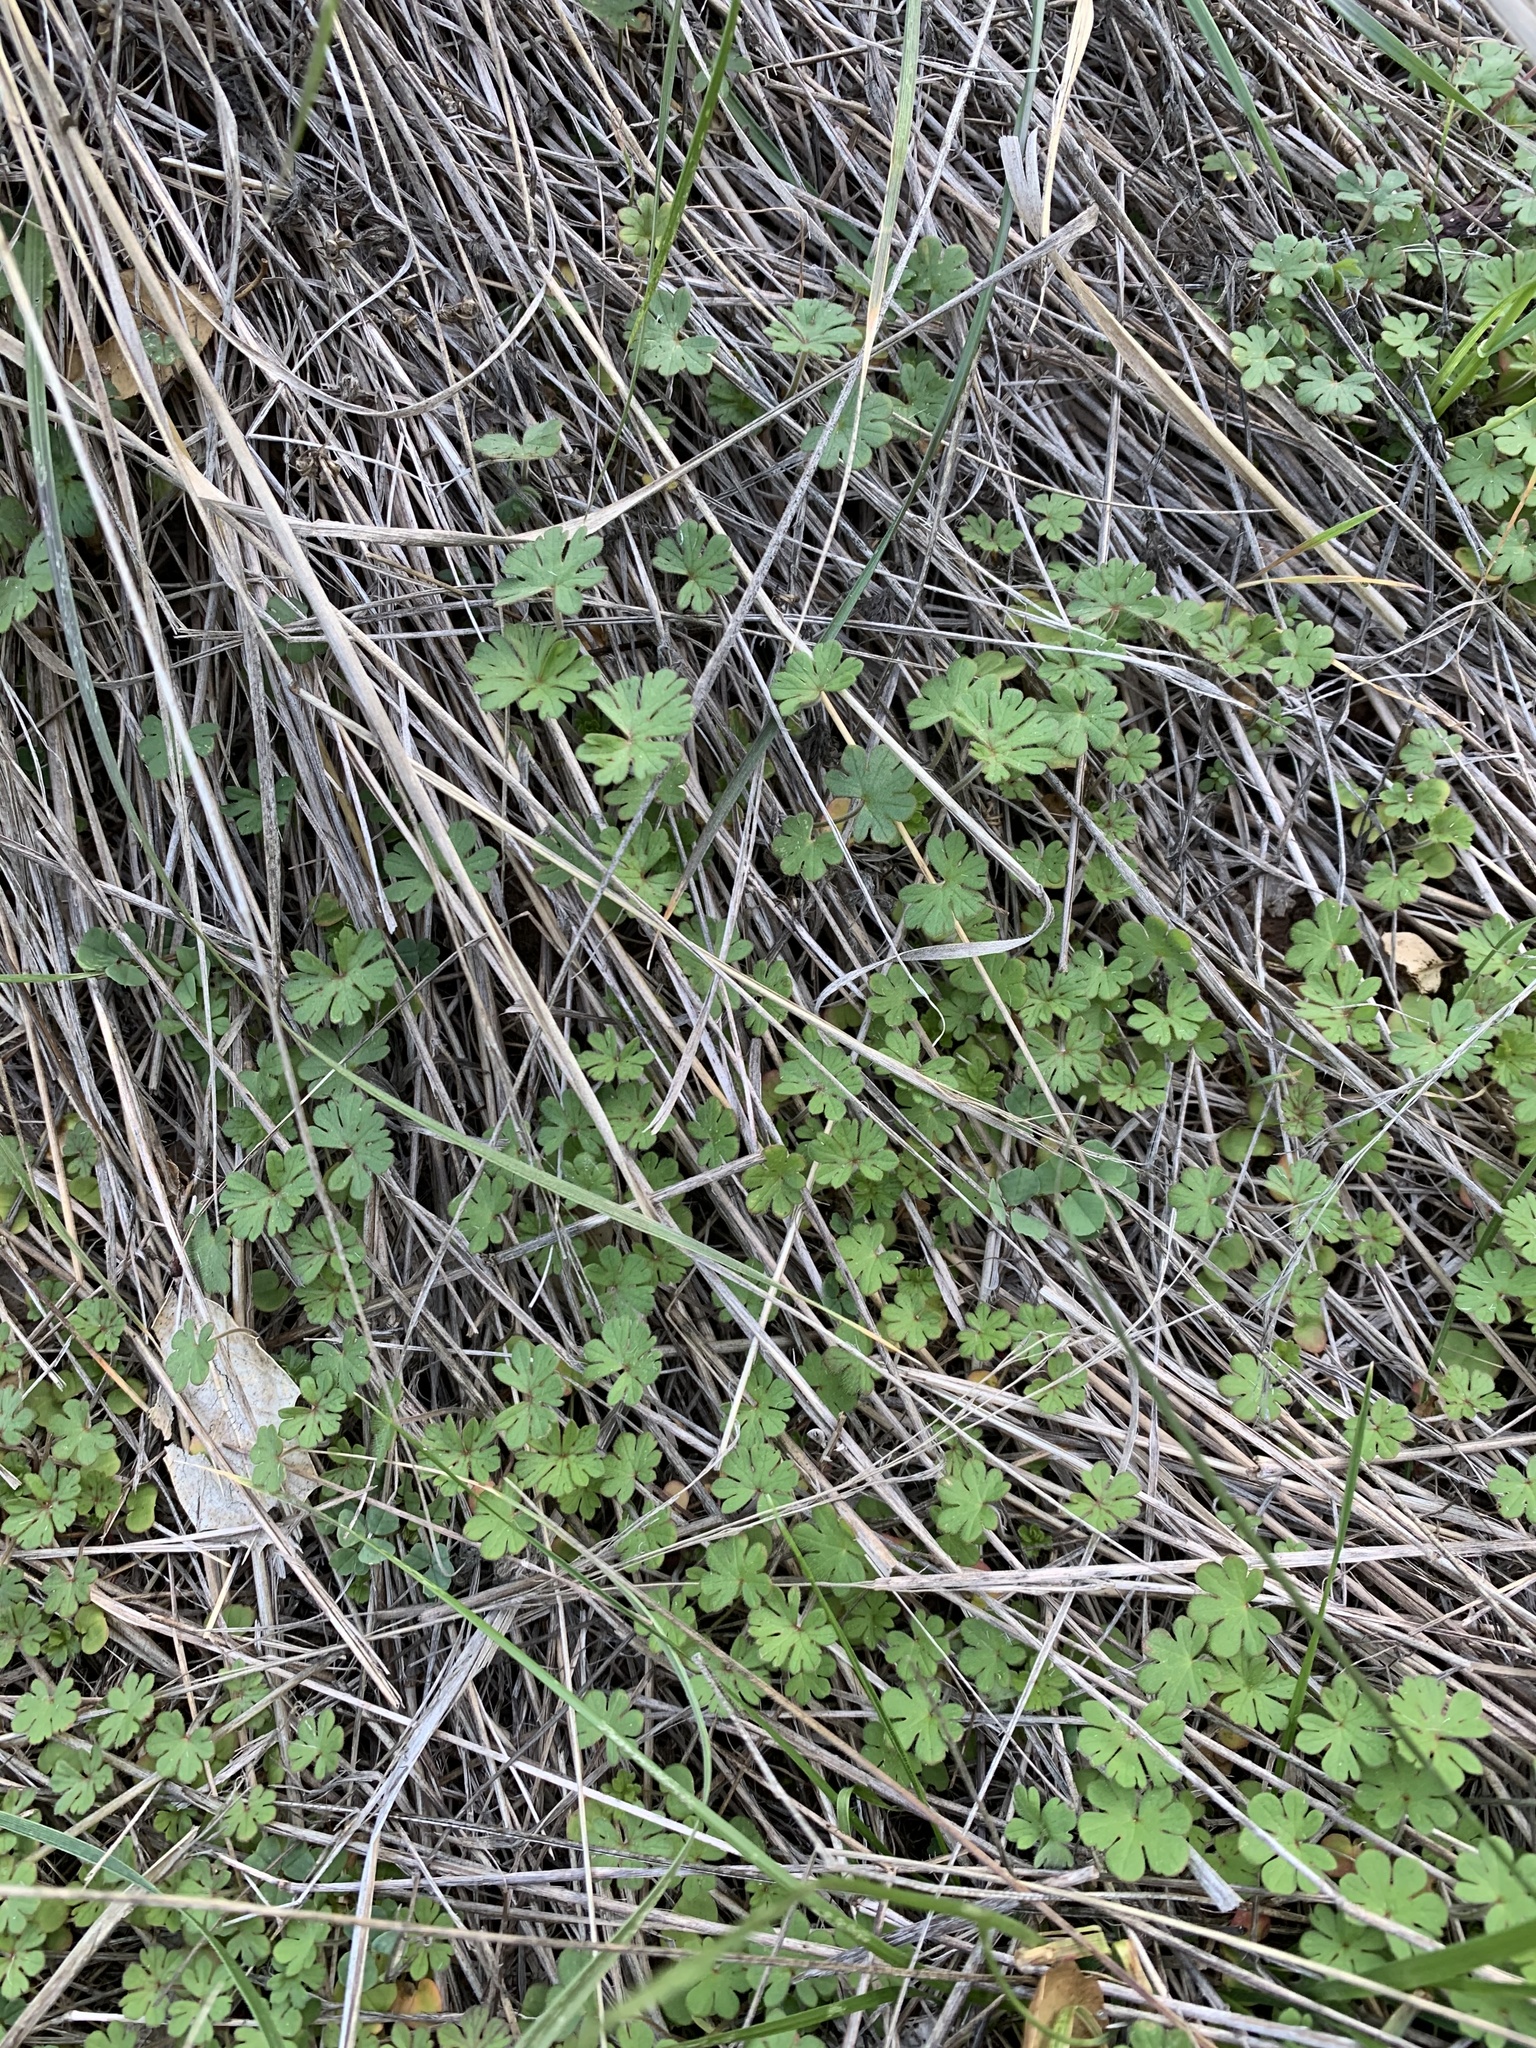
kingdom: Plantae
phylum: Tracheophyta
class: Magnoliopsida
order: Geraniales
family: Geraniaceae
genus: Geranium
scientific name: Geranium
